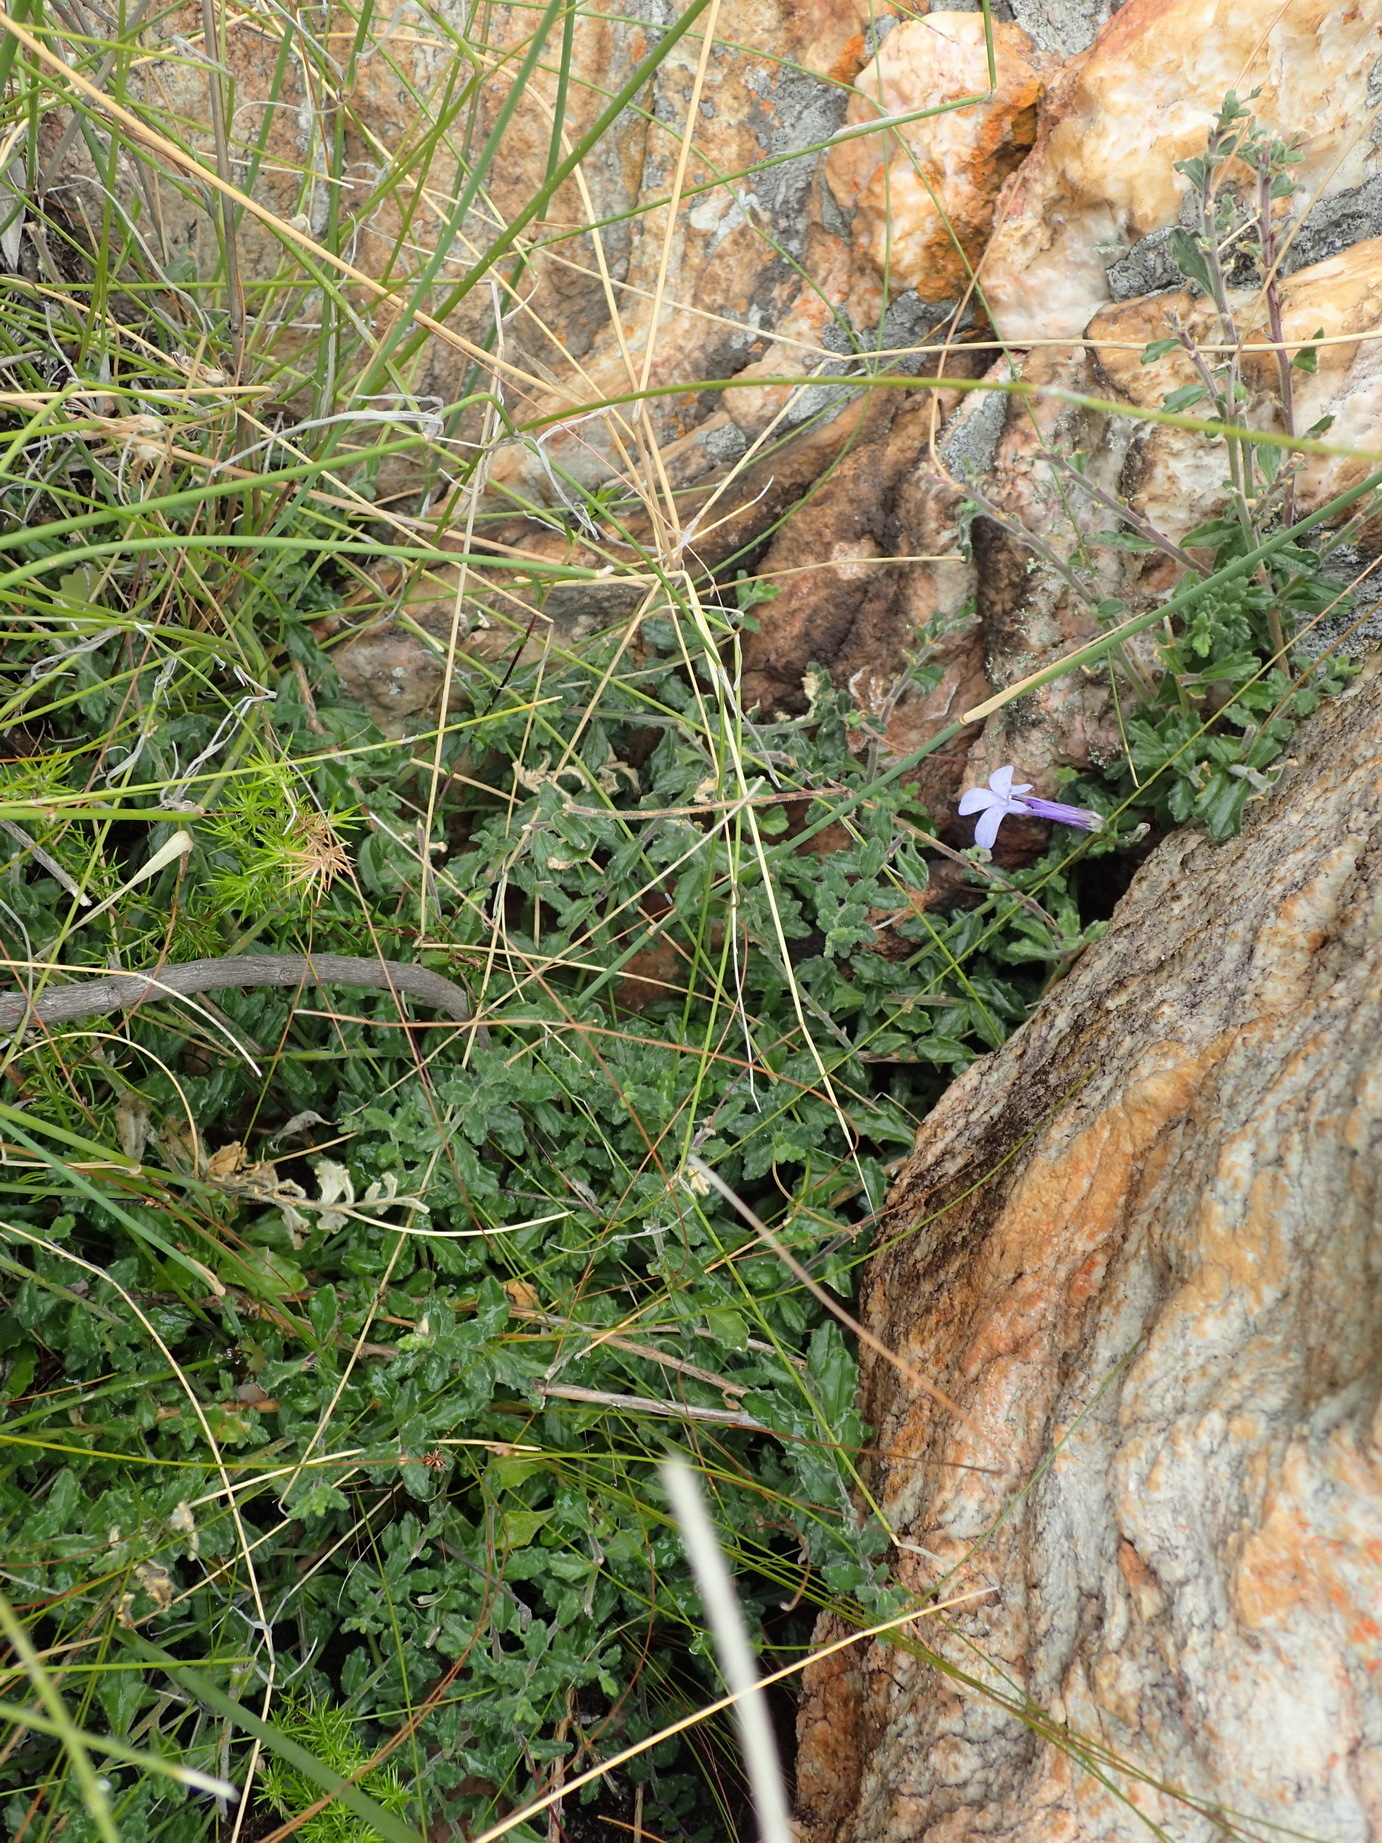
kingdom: Plantae
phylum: Tracheophyta
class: Magnoliopsida
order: Asterales
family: Campanulaceae
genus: Lobelia
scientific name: Lobelia dichroma
